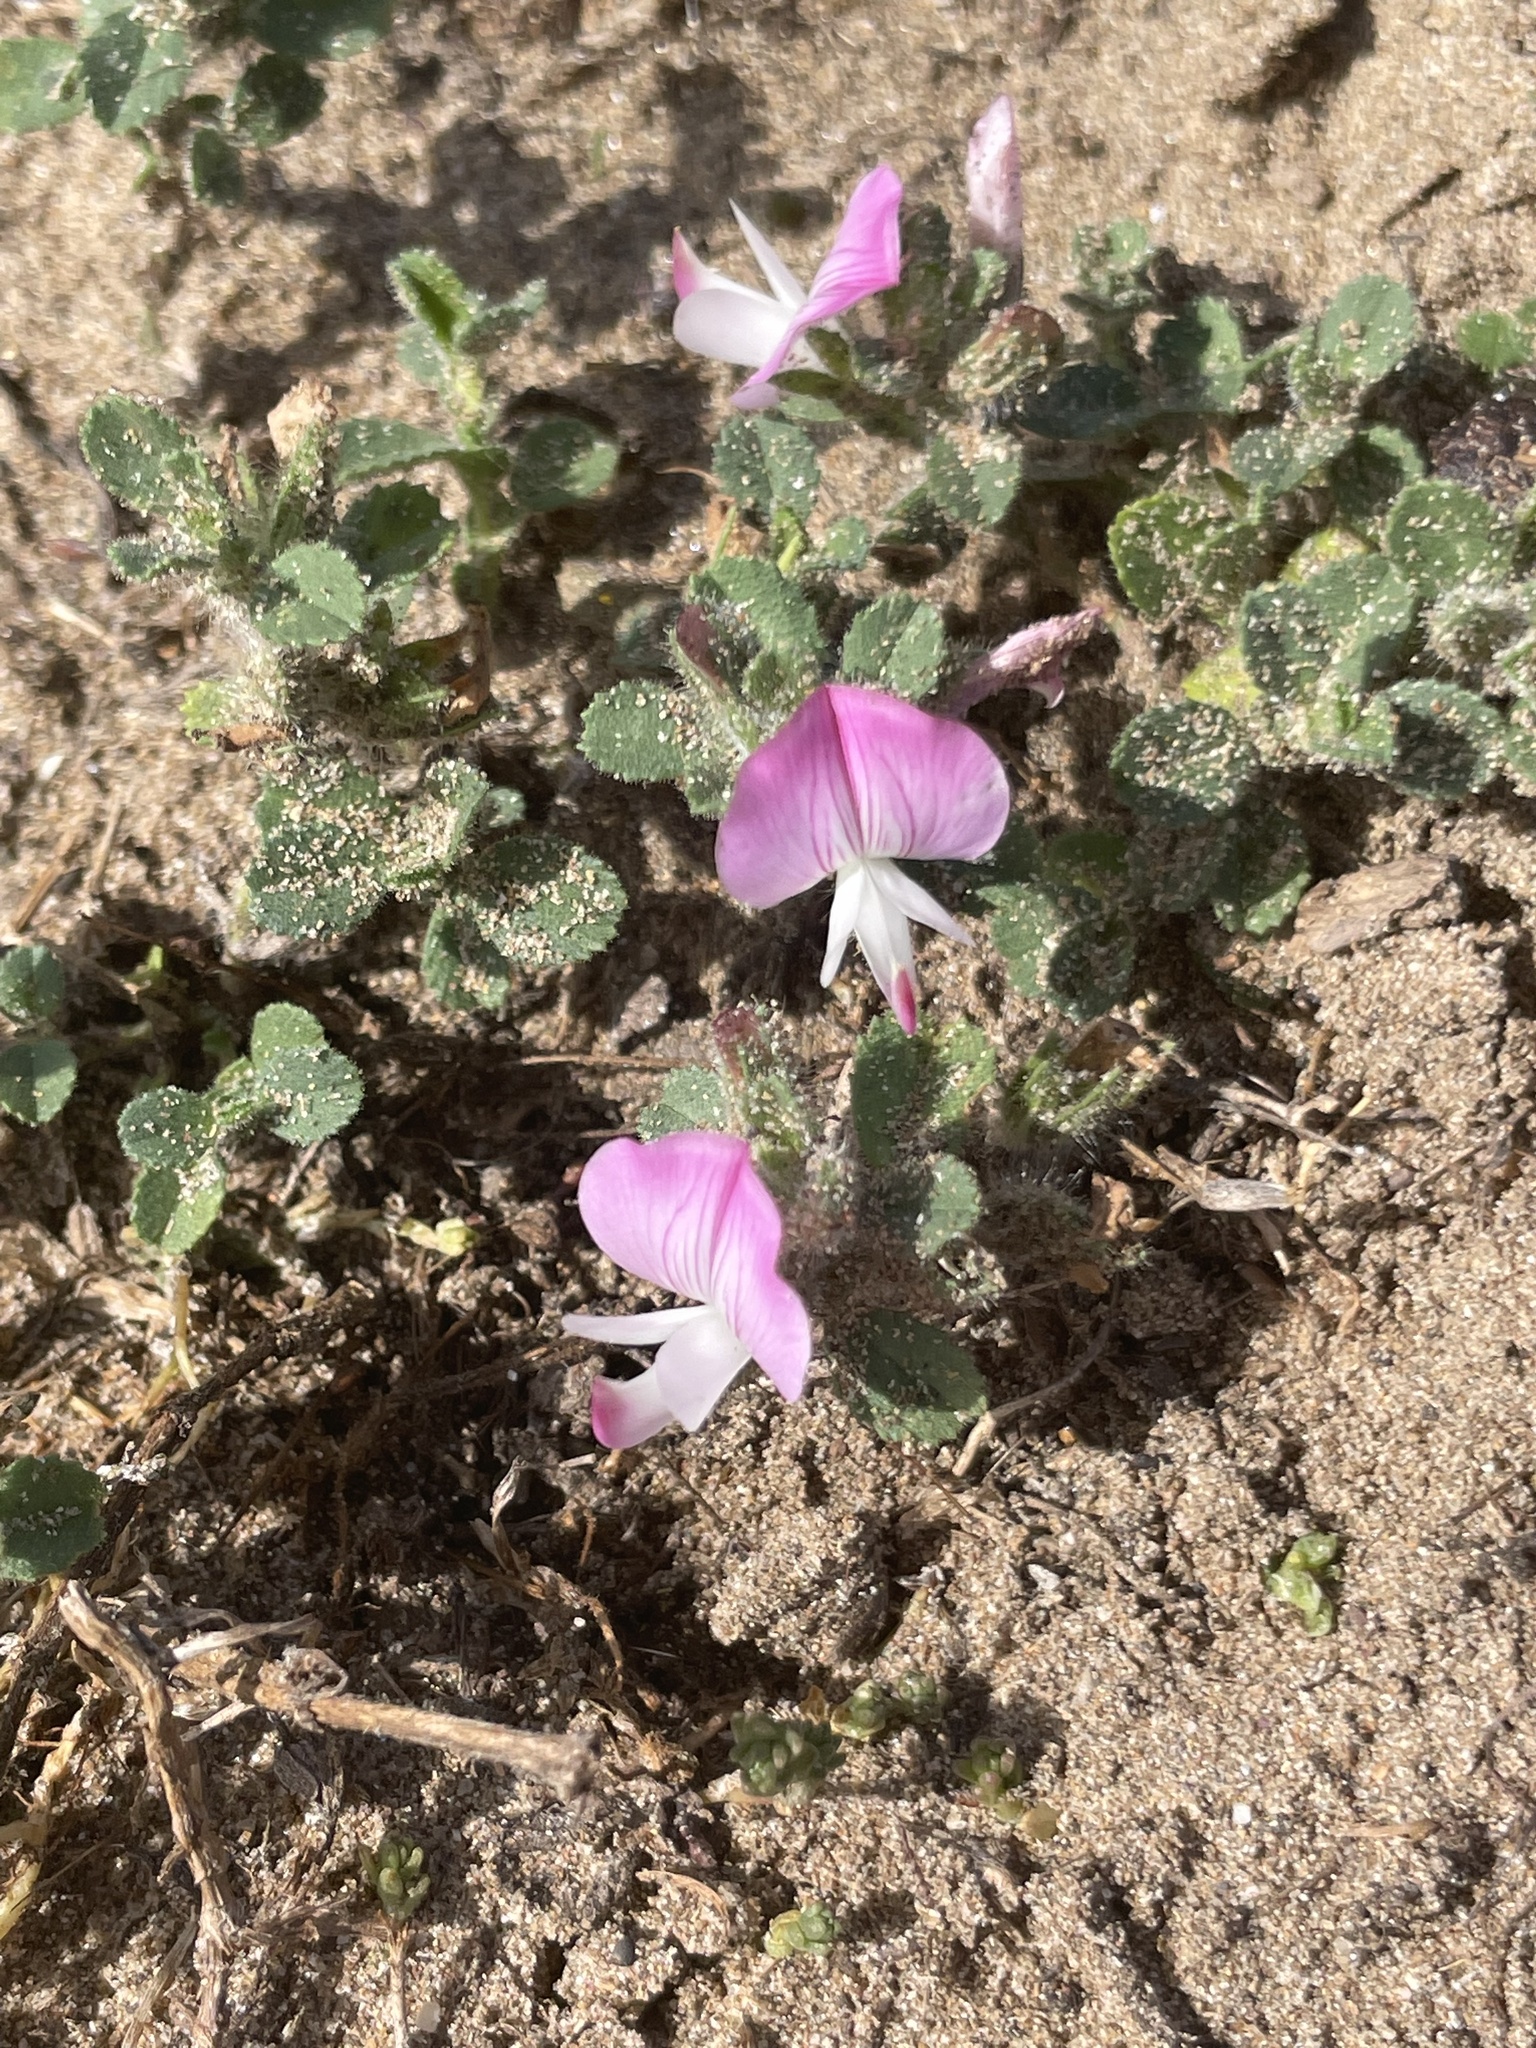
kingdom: Plantae
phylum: Tracheophyta
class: Magnoliopsida
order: Fabales
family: Fabaceae
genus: Ononis
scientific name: Ononis spinosa
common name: Spiny restharrow
